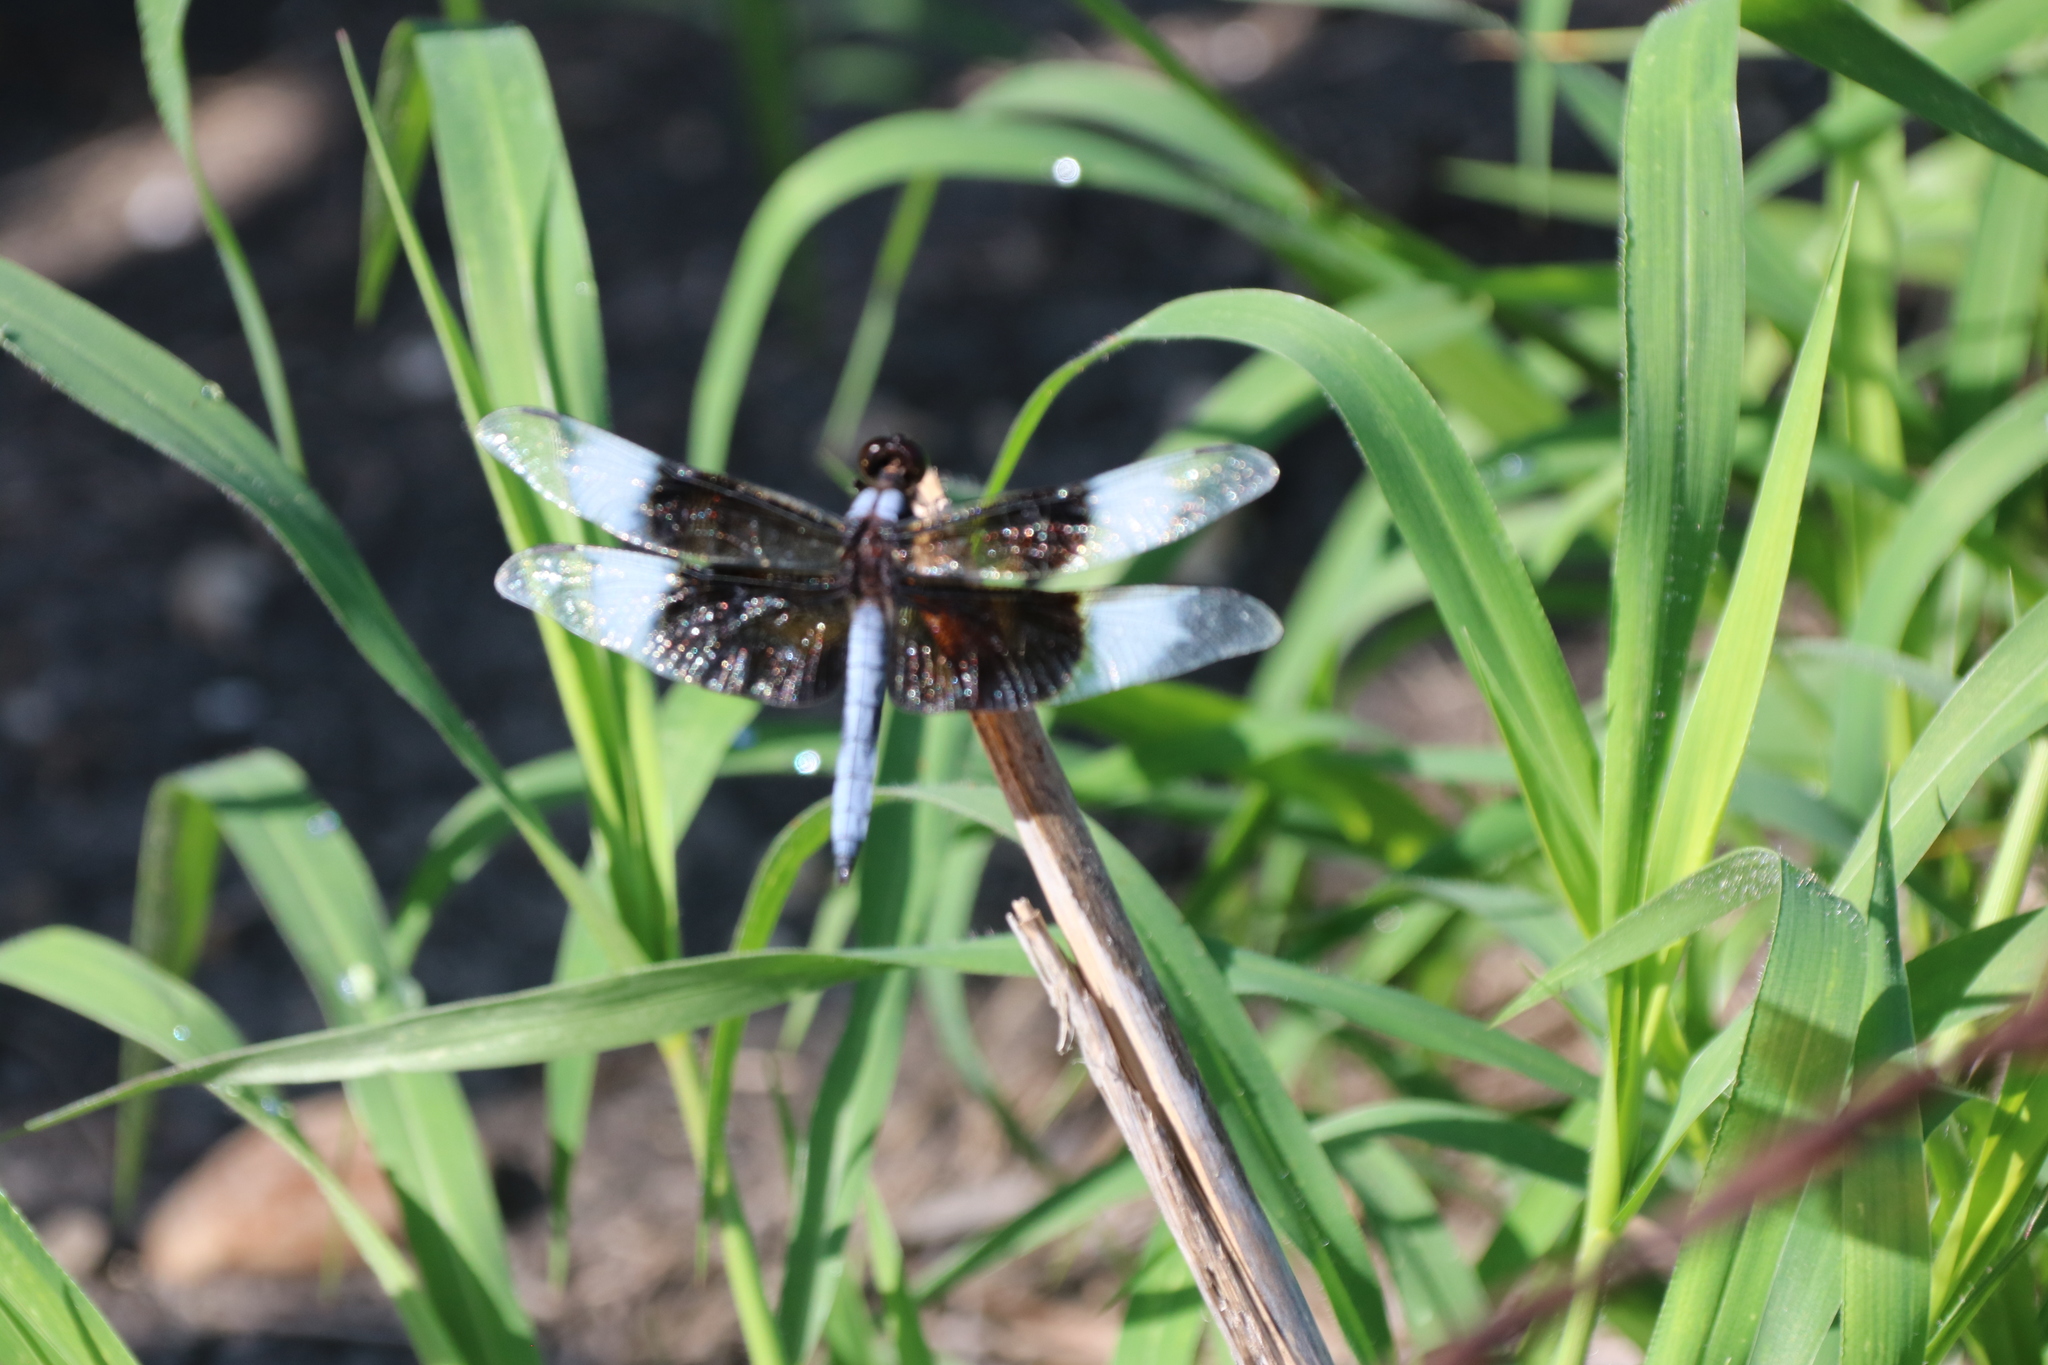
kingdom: Animalia
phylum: Arthropoda
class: Insecta
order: Odonata
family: Libellulidae
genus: Libellula
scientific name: Libellula luctuosa
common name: Widow skimmer
